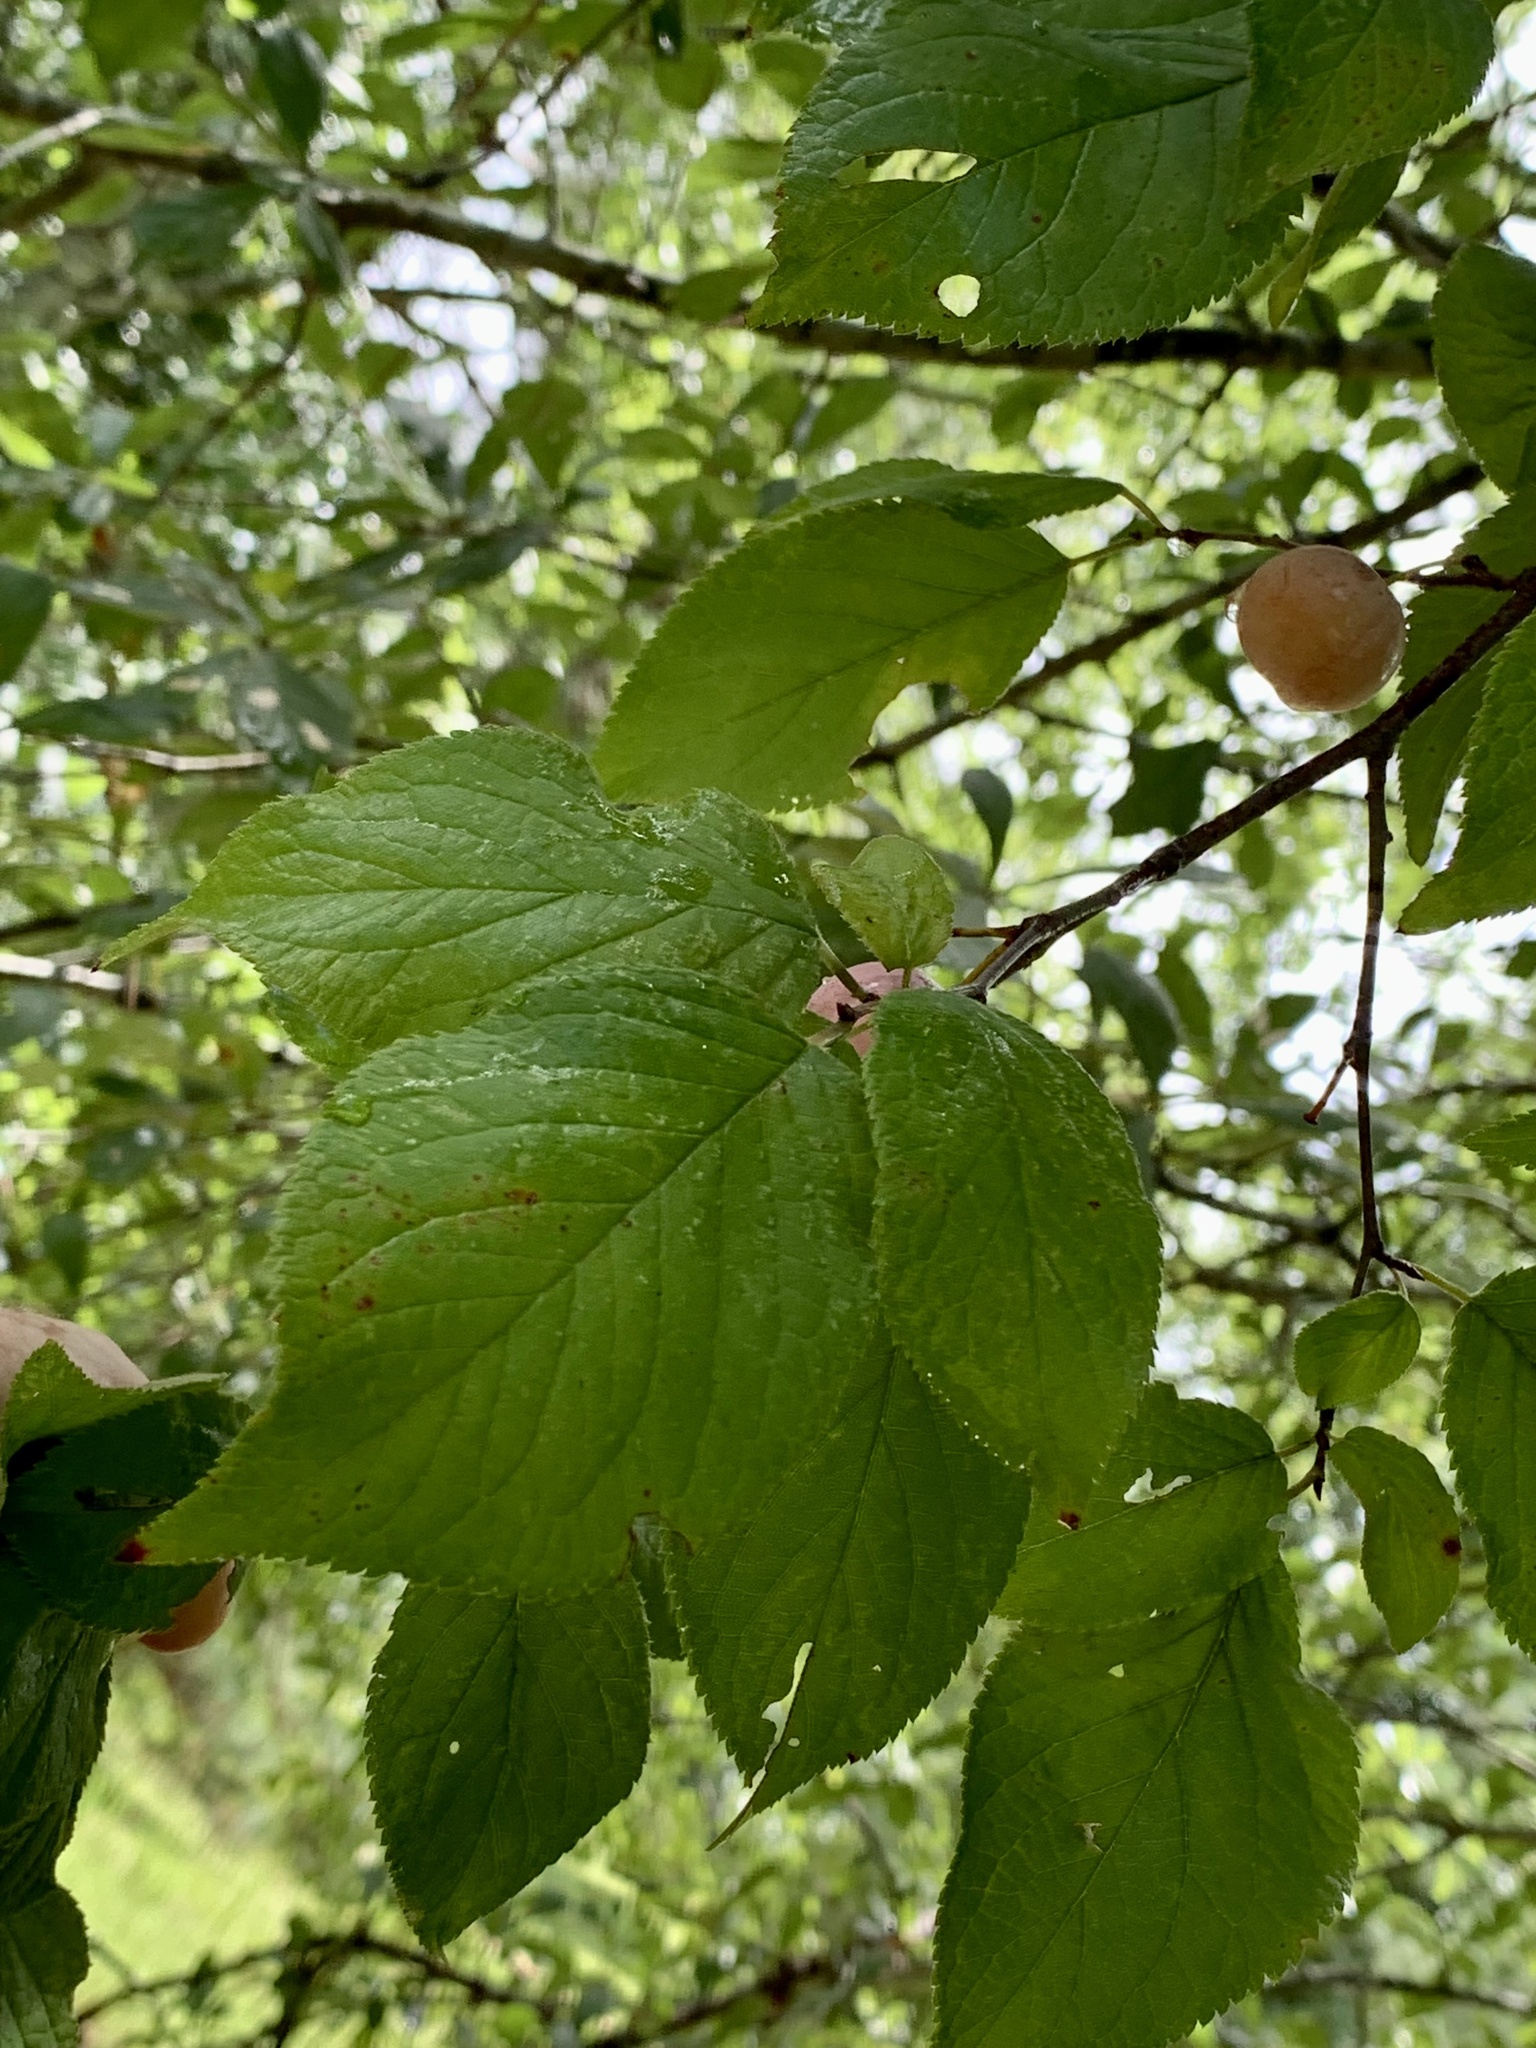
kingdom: Plantae
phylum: Tracheophyta
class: Magnoliopsida
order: Rosales
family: Rosaceae
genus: Prunus
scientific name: Prunus mexicana
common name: Mexican plum
